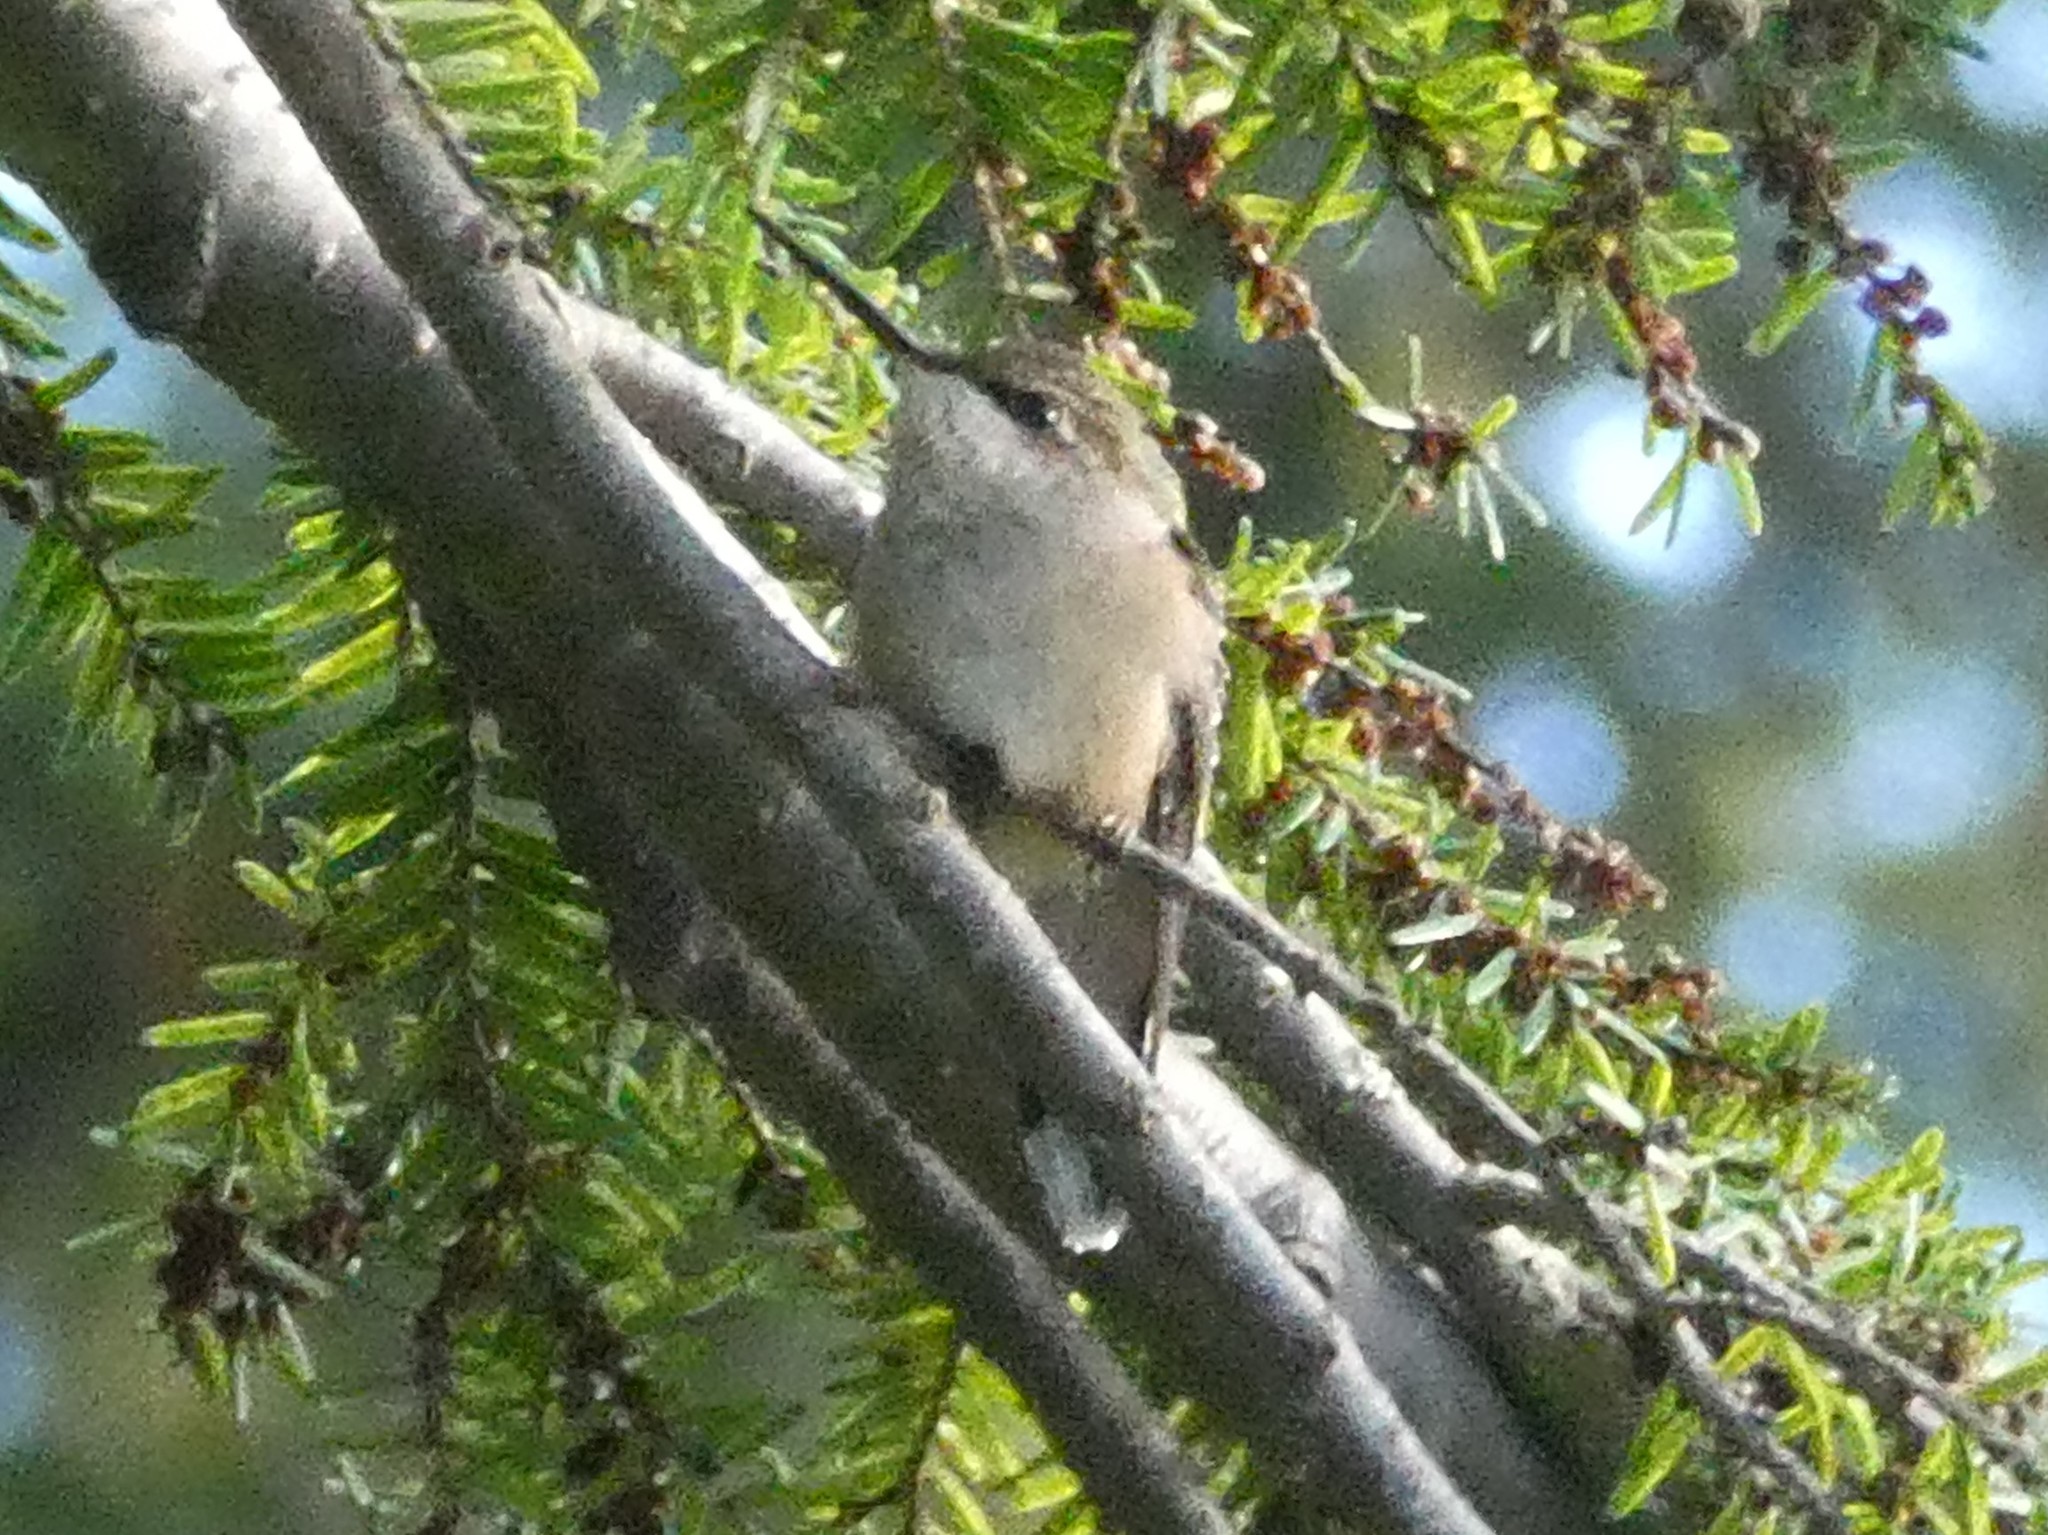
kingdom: Animalia
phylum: Chordata
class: Aves
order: Apodiformes
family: Trochilidae
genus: Archilochus
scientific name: Archilochus colubris
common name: Ruby-throated hummingbird
